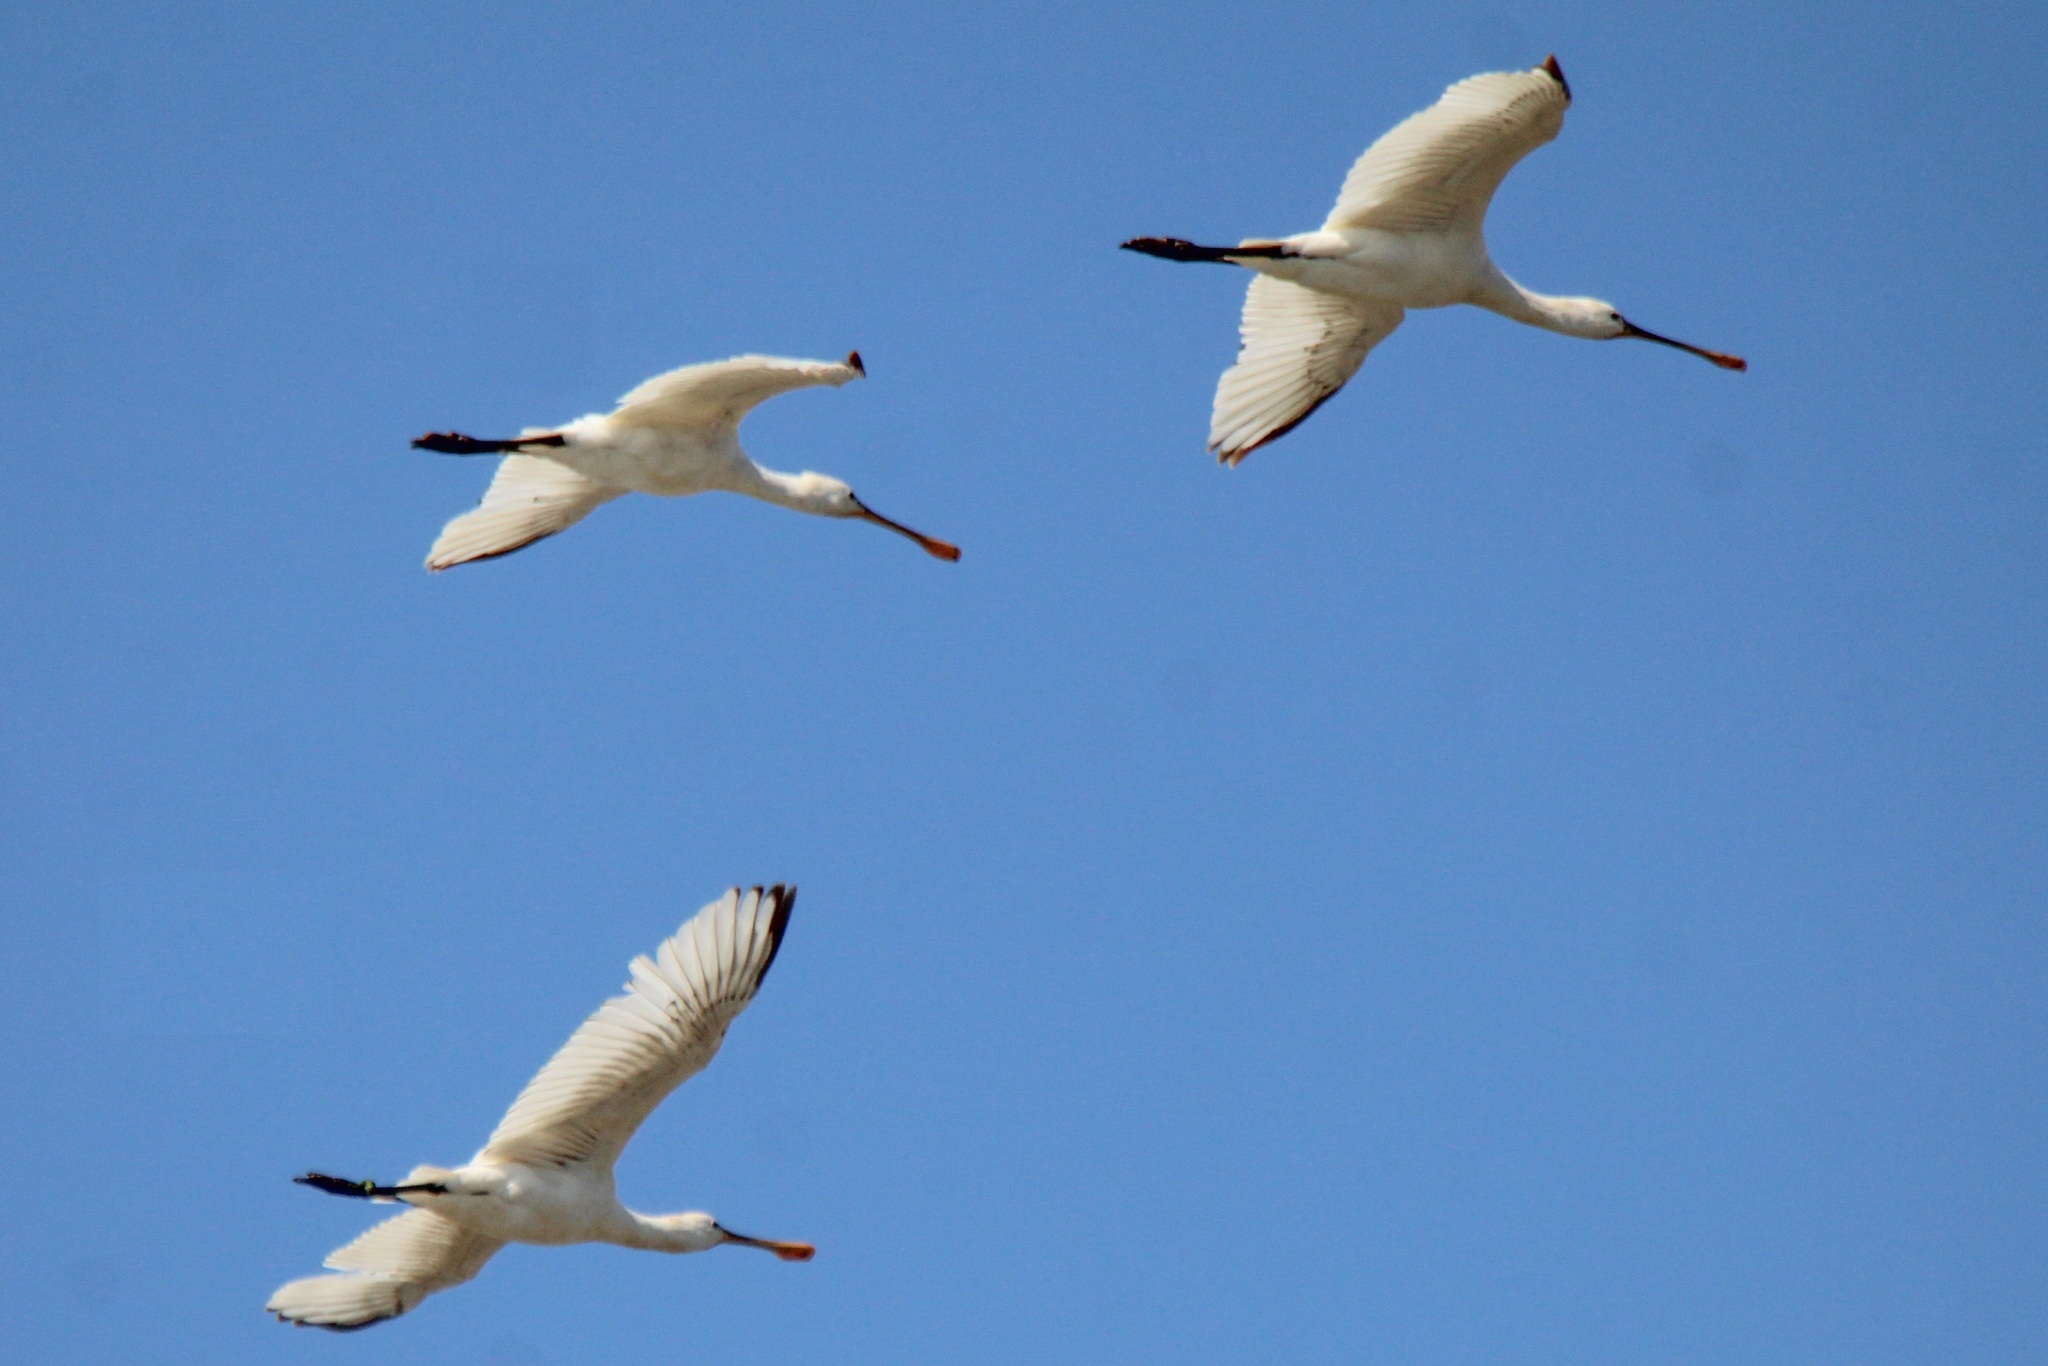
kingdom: Animalia
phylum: Chordata
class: Aves
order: Pelecaniformes
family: Threskiornithidae
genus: Platalea
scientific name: Platalea leucorodia
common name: Eurasian spoonbill
